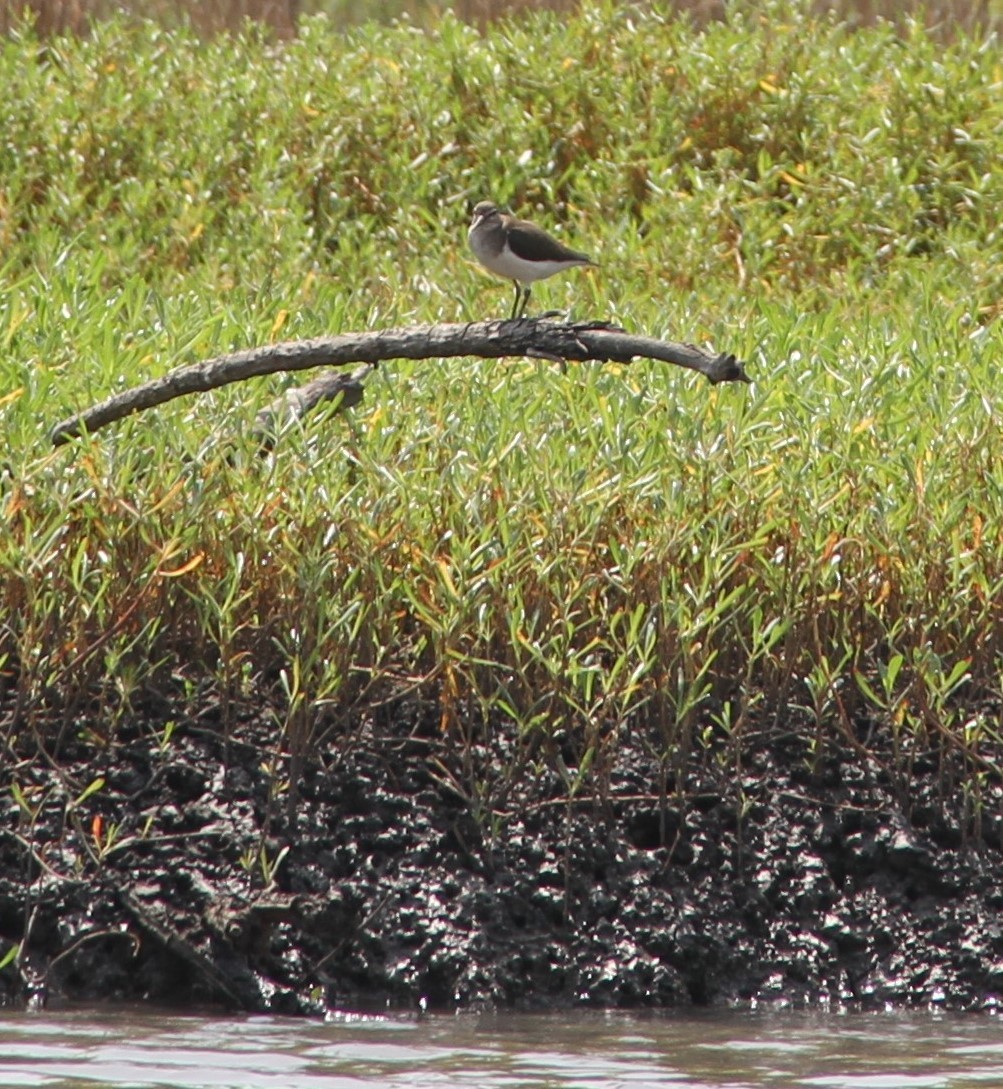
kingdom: Animalia
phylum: Chordata
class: Aves
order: Charadriiformes
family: Scolopacidae
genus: Actitis
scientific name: Actitis hypoleucos
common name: Common sandpiper
